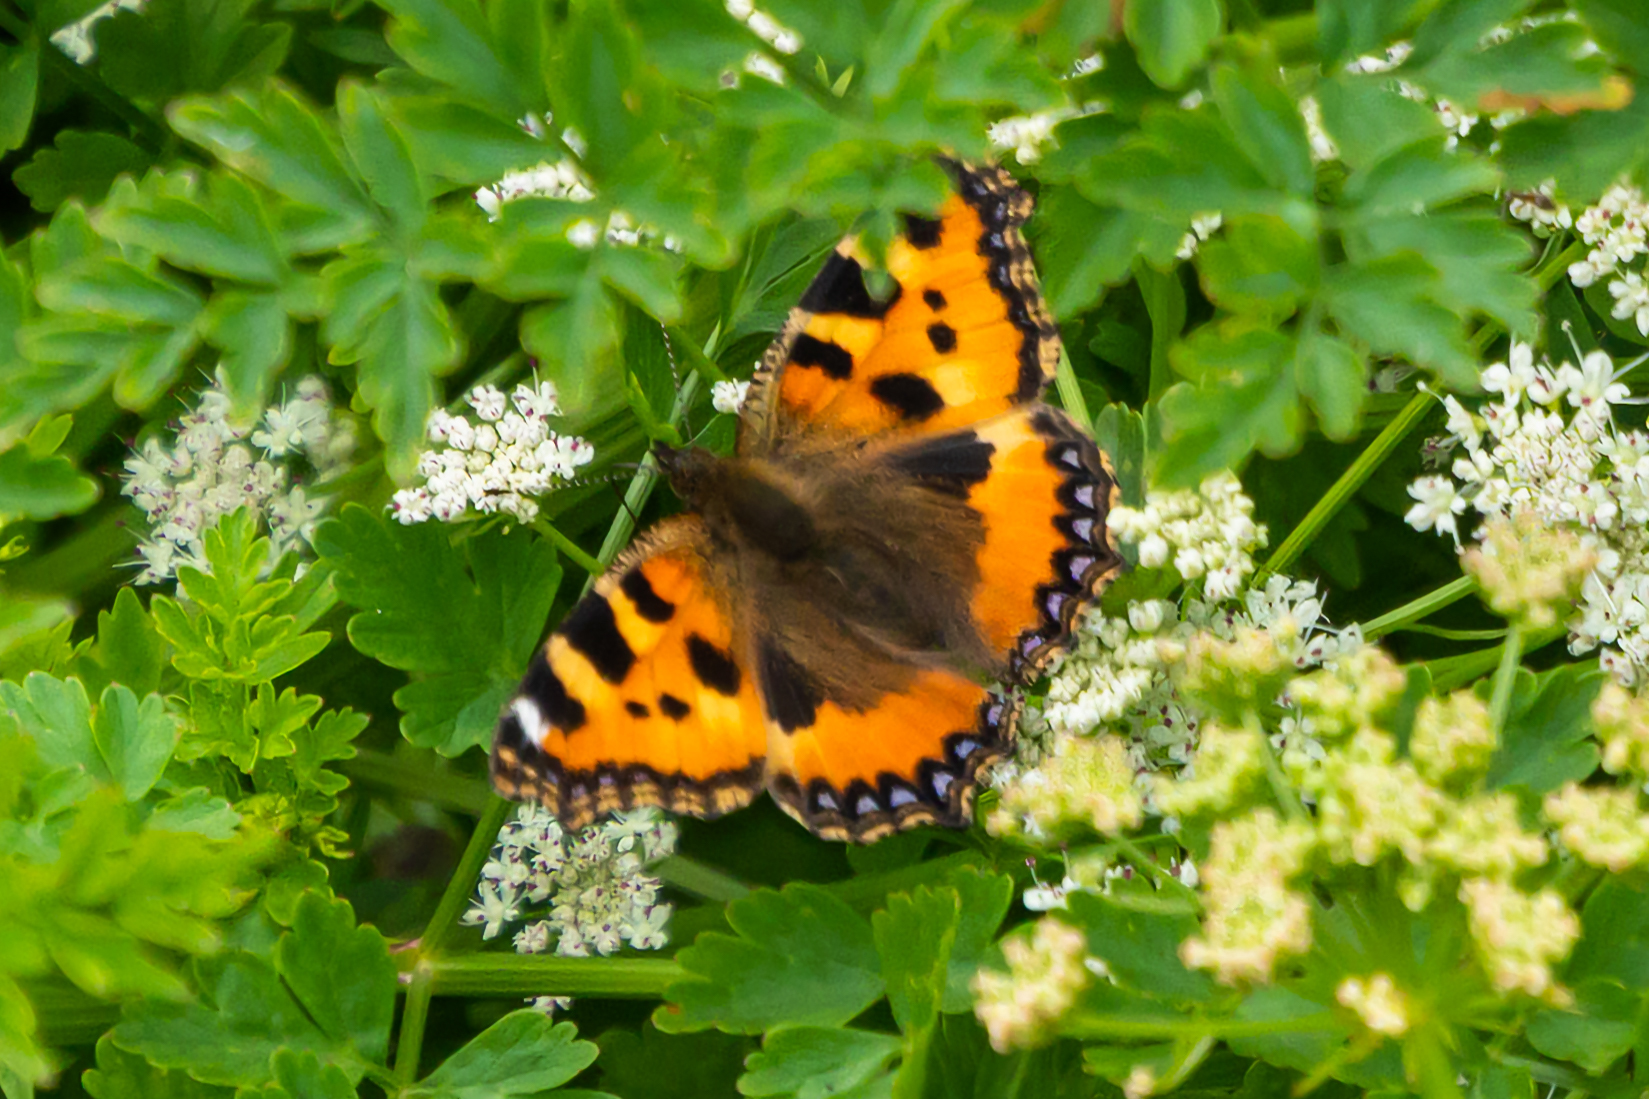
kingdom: Animalia
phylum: Arthropoda
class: Insecta
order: Lepidoptera
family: Nymphalidae
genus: Aglais
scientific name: Aglais urticae
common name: Small tortoiseshell
